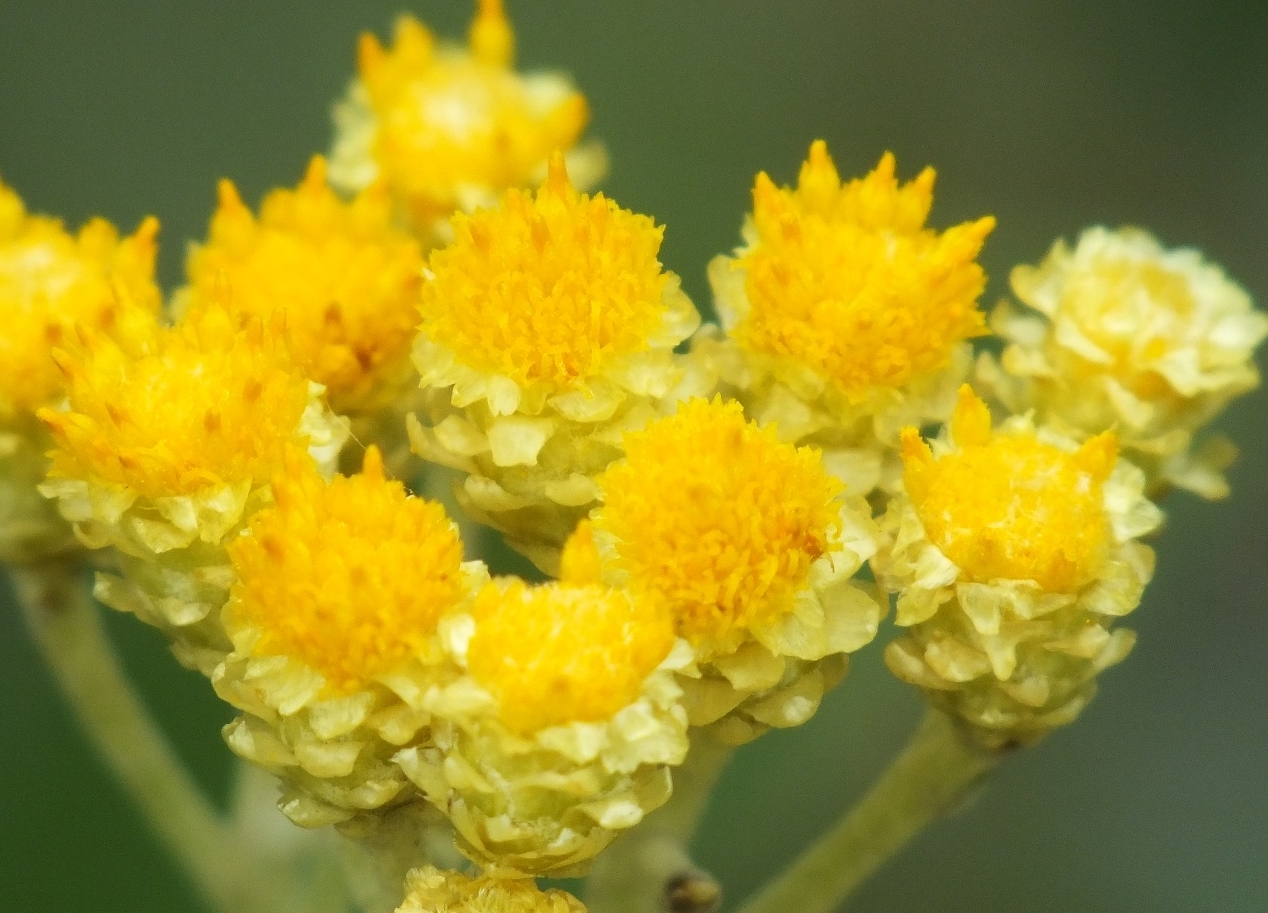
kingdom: Plantae
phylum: Tracheophyta
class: Magnoliopsida
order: Asterales
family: Asteraceae
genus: Helichrysum
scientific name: Helichrysum arenarium
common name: Strawflower
